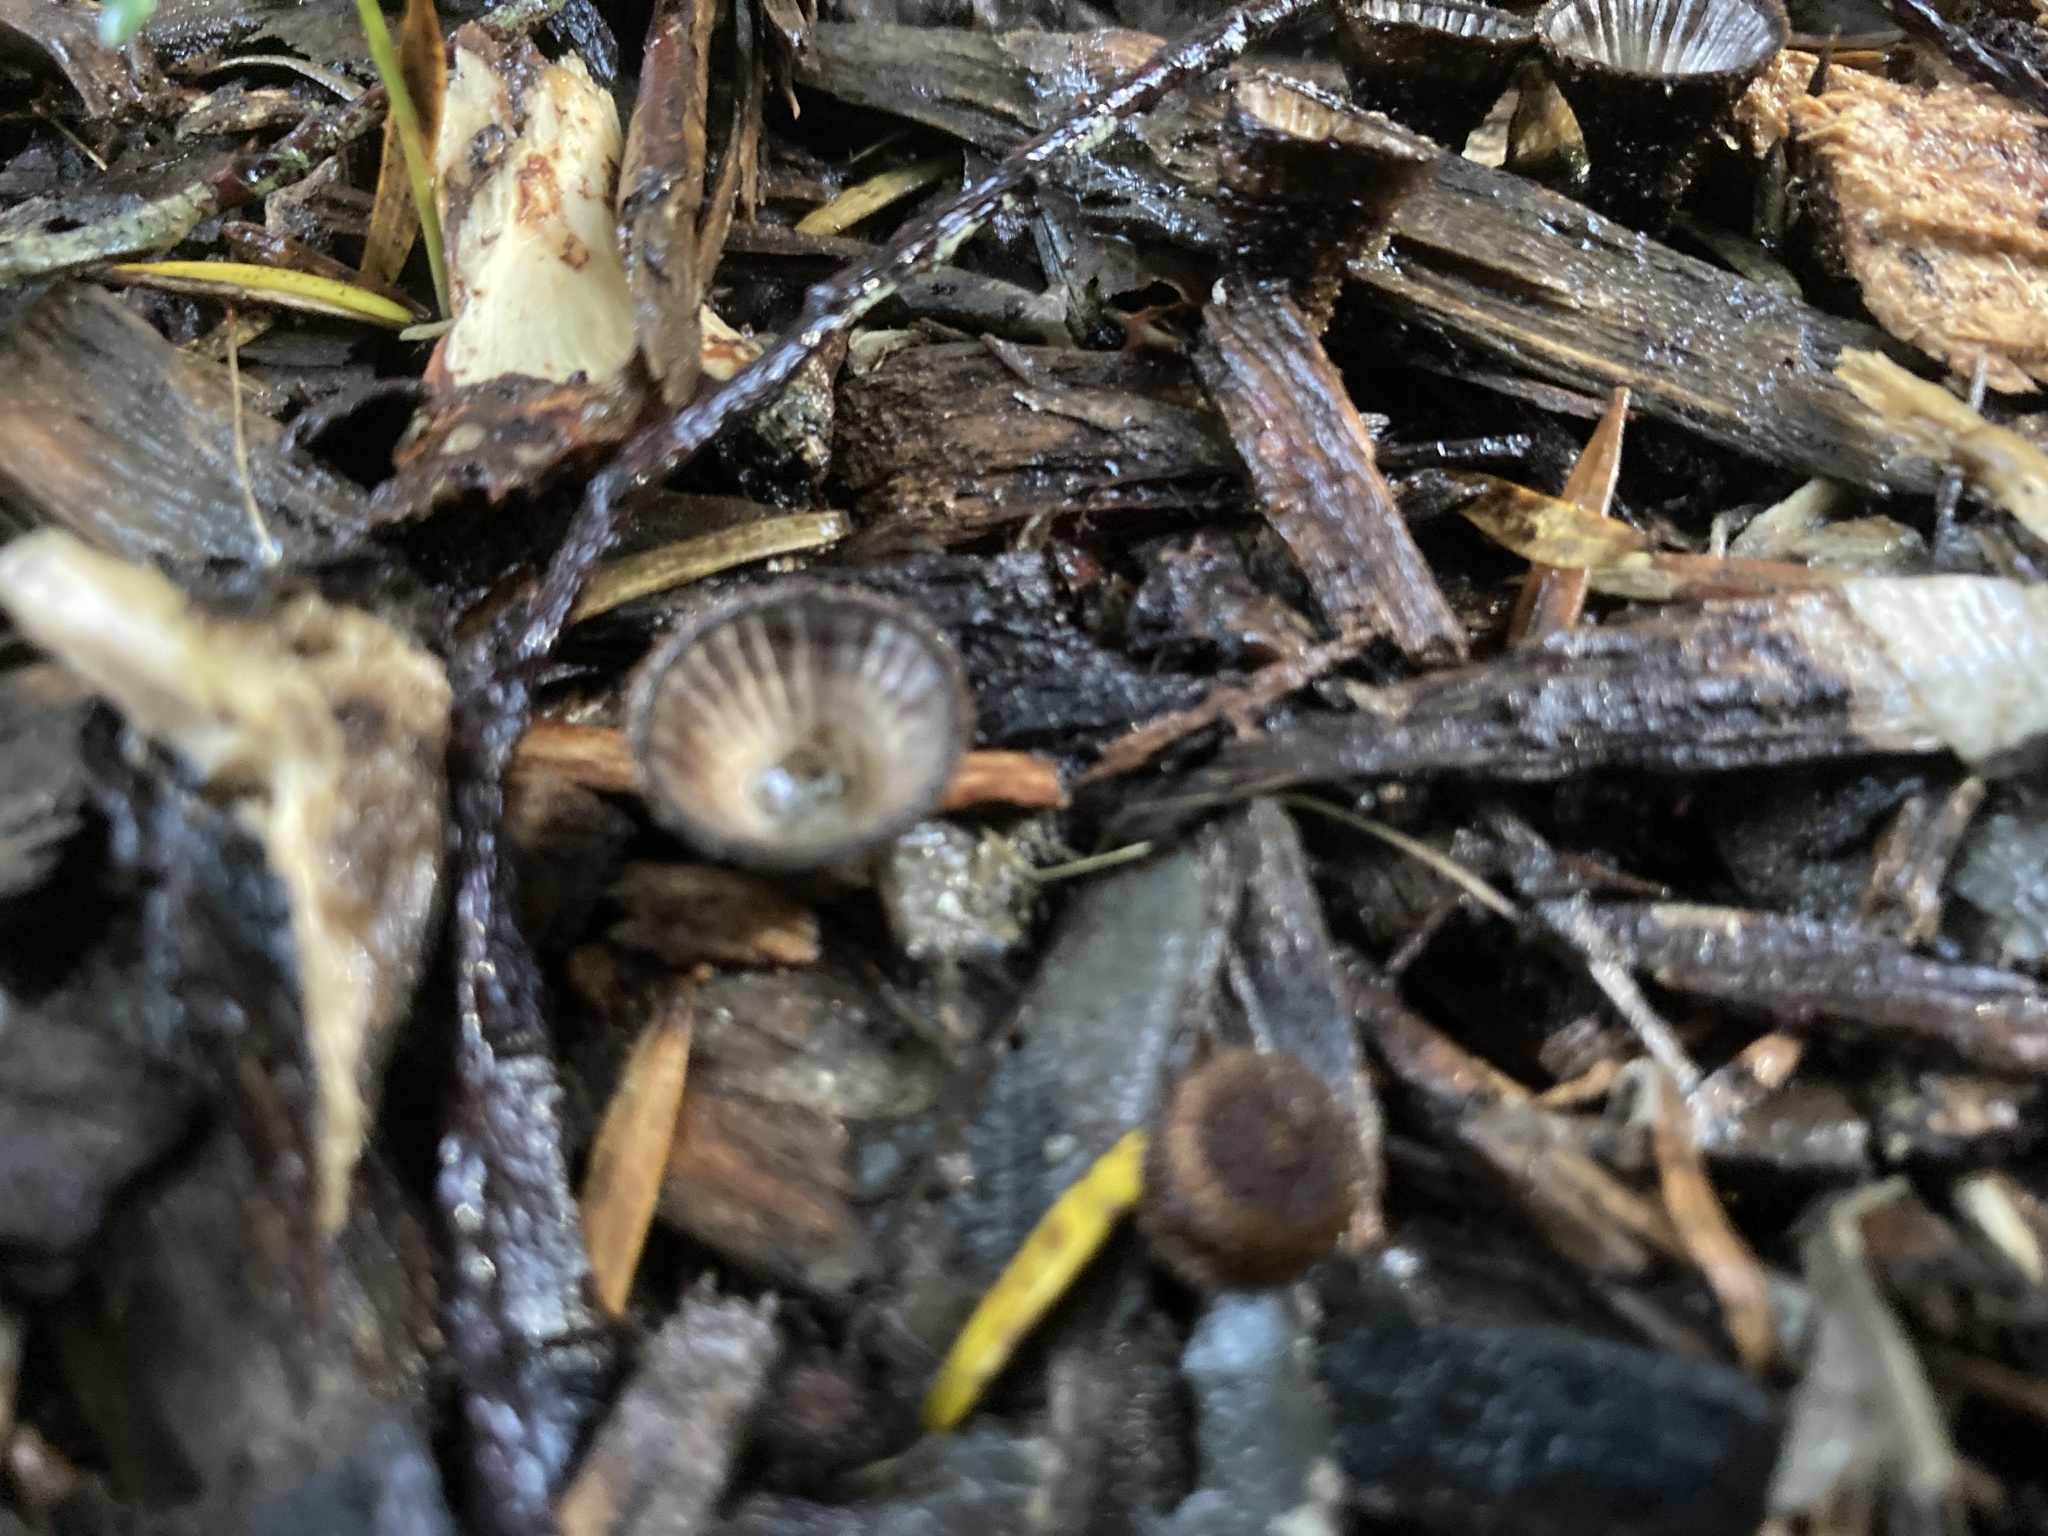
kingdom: Fungi
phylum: Basidiomycota
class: Agaricomycetes
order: Agaricales
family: Agaricaceae
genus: Cyathus
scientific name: Cyathus striatus
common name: Fluted bird's nest
